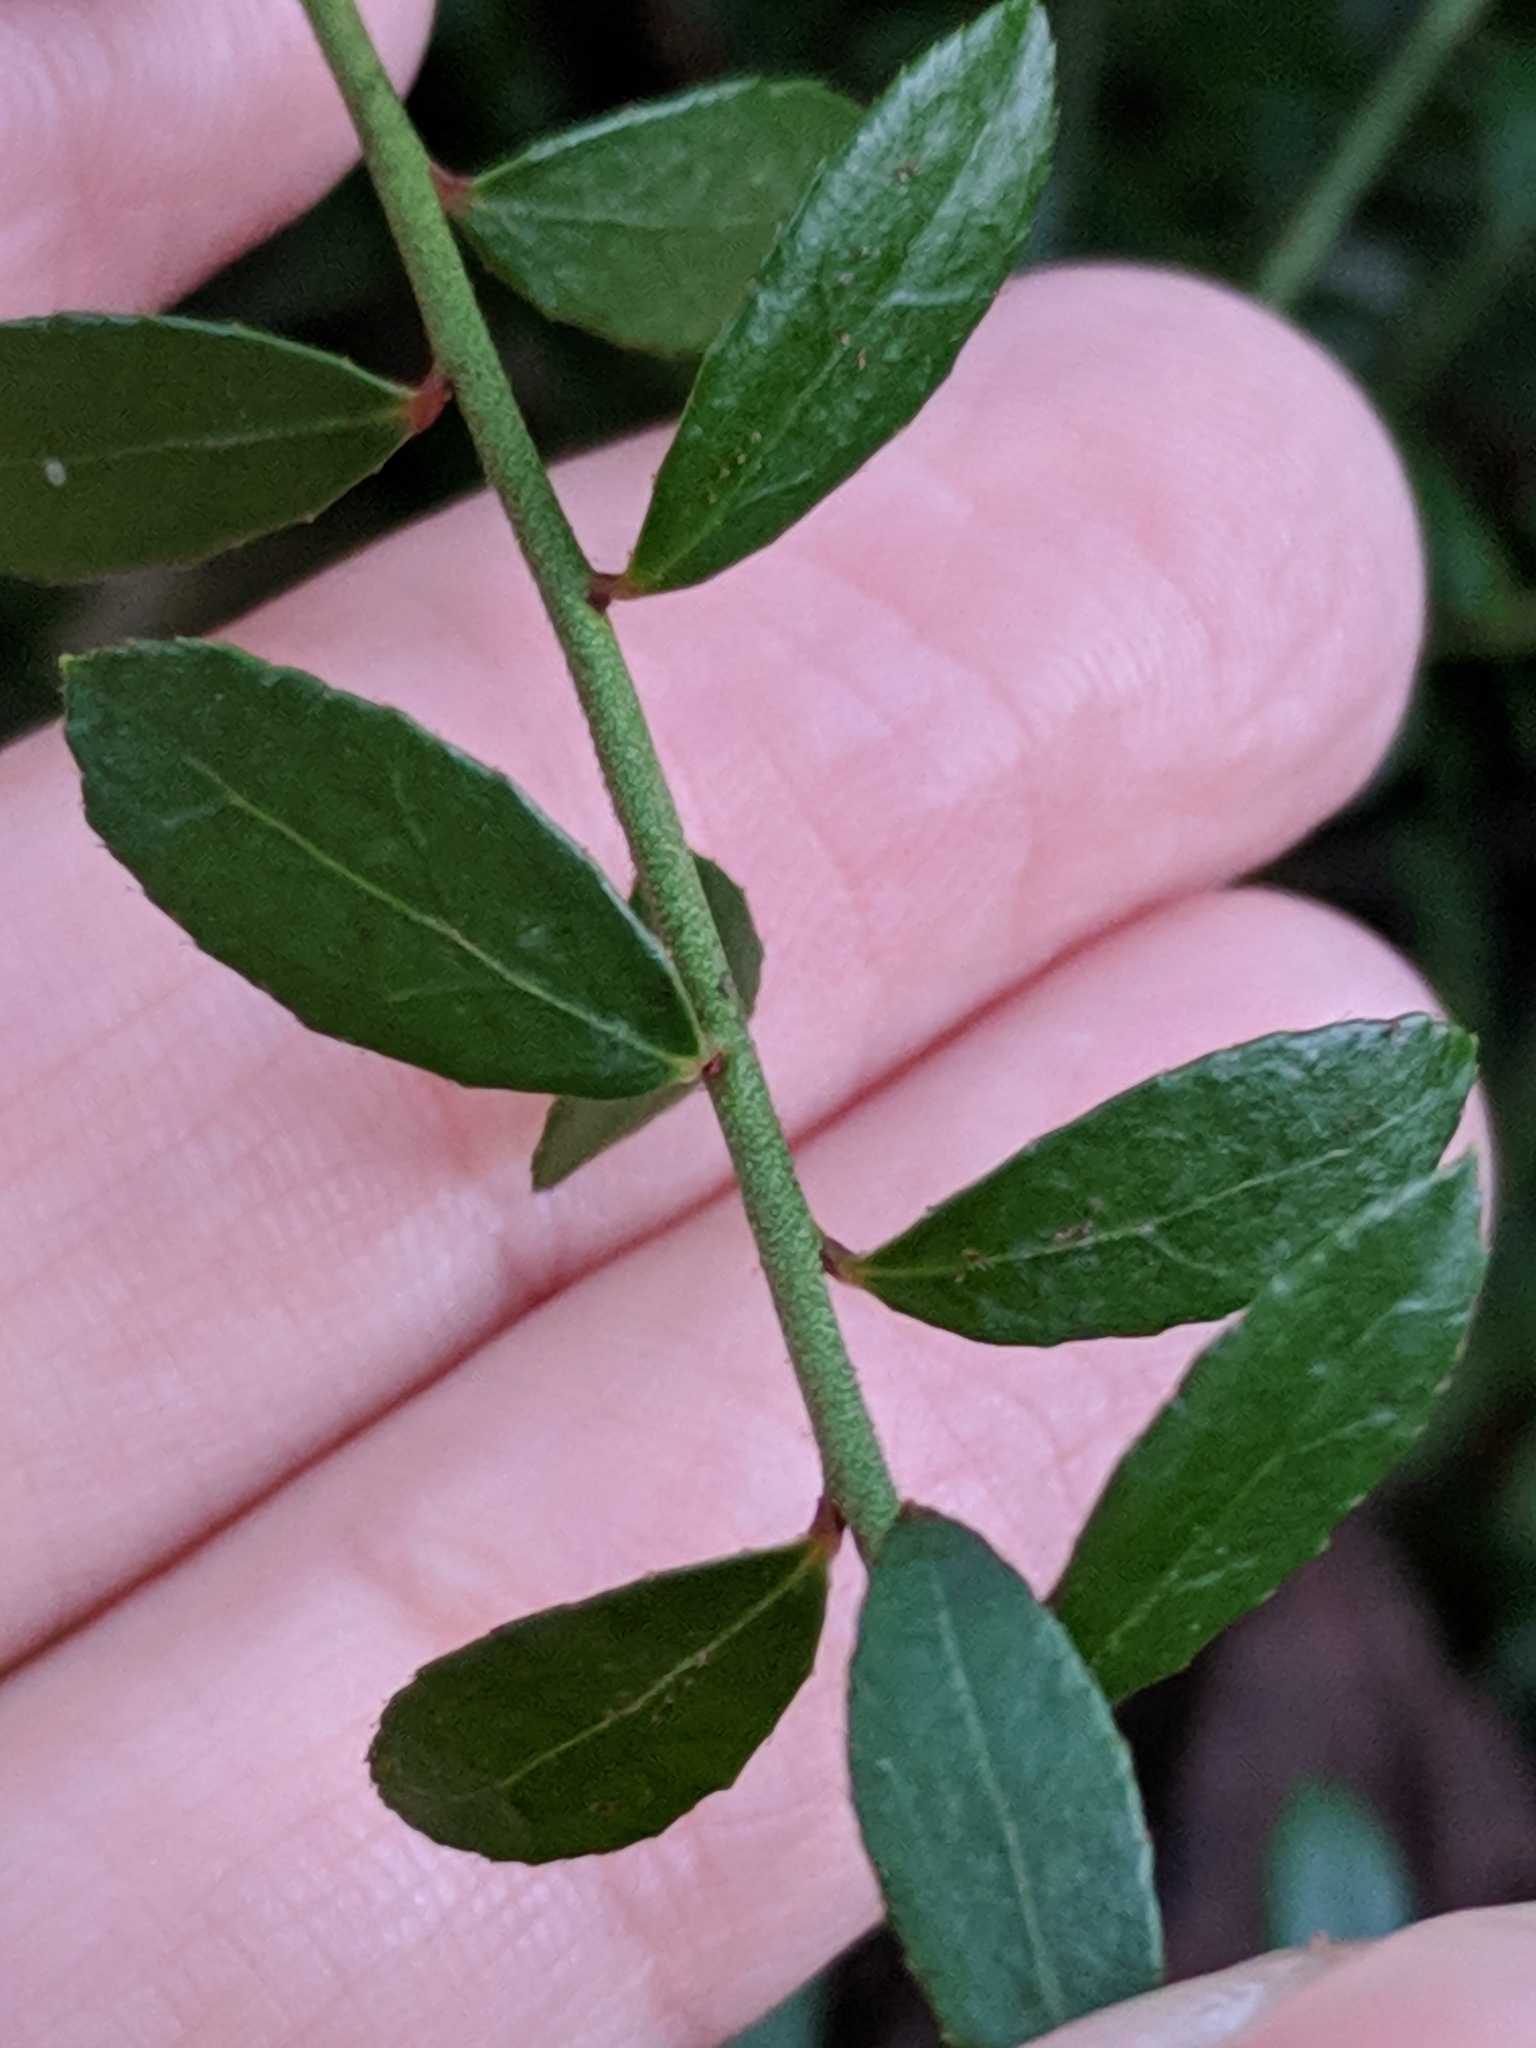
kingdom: Plantae
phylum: Tracheophyta
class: Magnoliopsida
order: Ericales
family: Ericaceae
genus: Vaccinium
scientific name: Vaccinium myrsinites
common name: Evergreen blueberry
